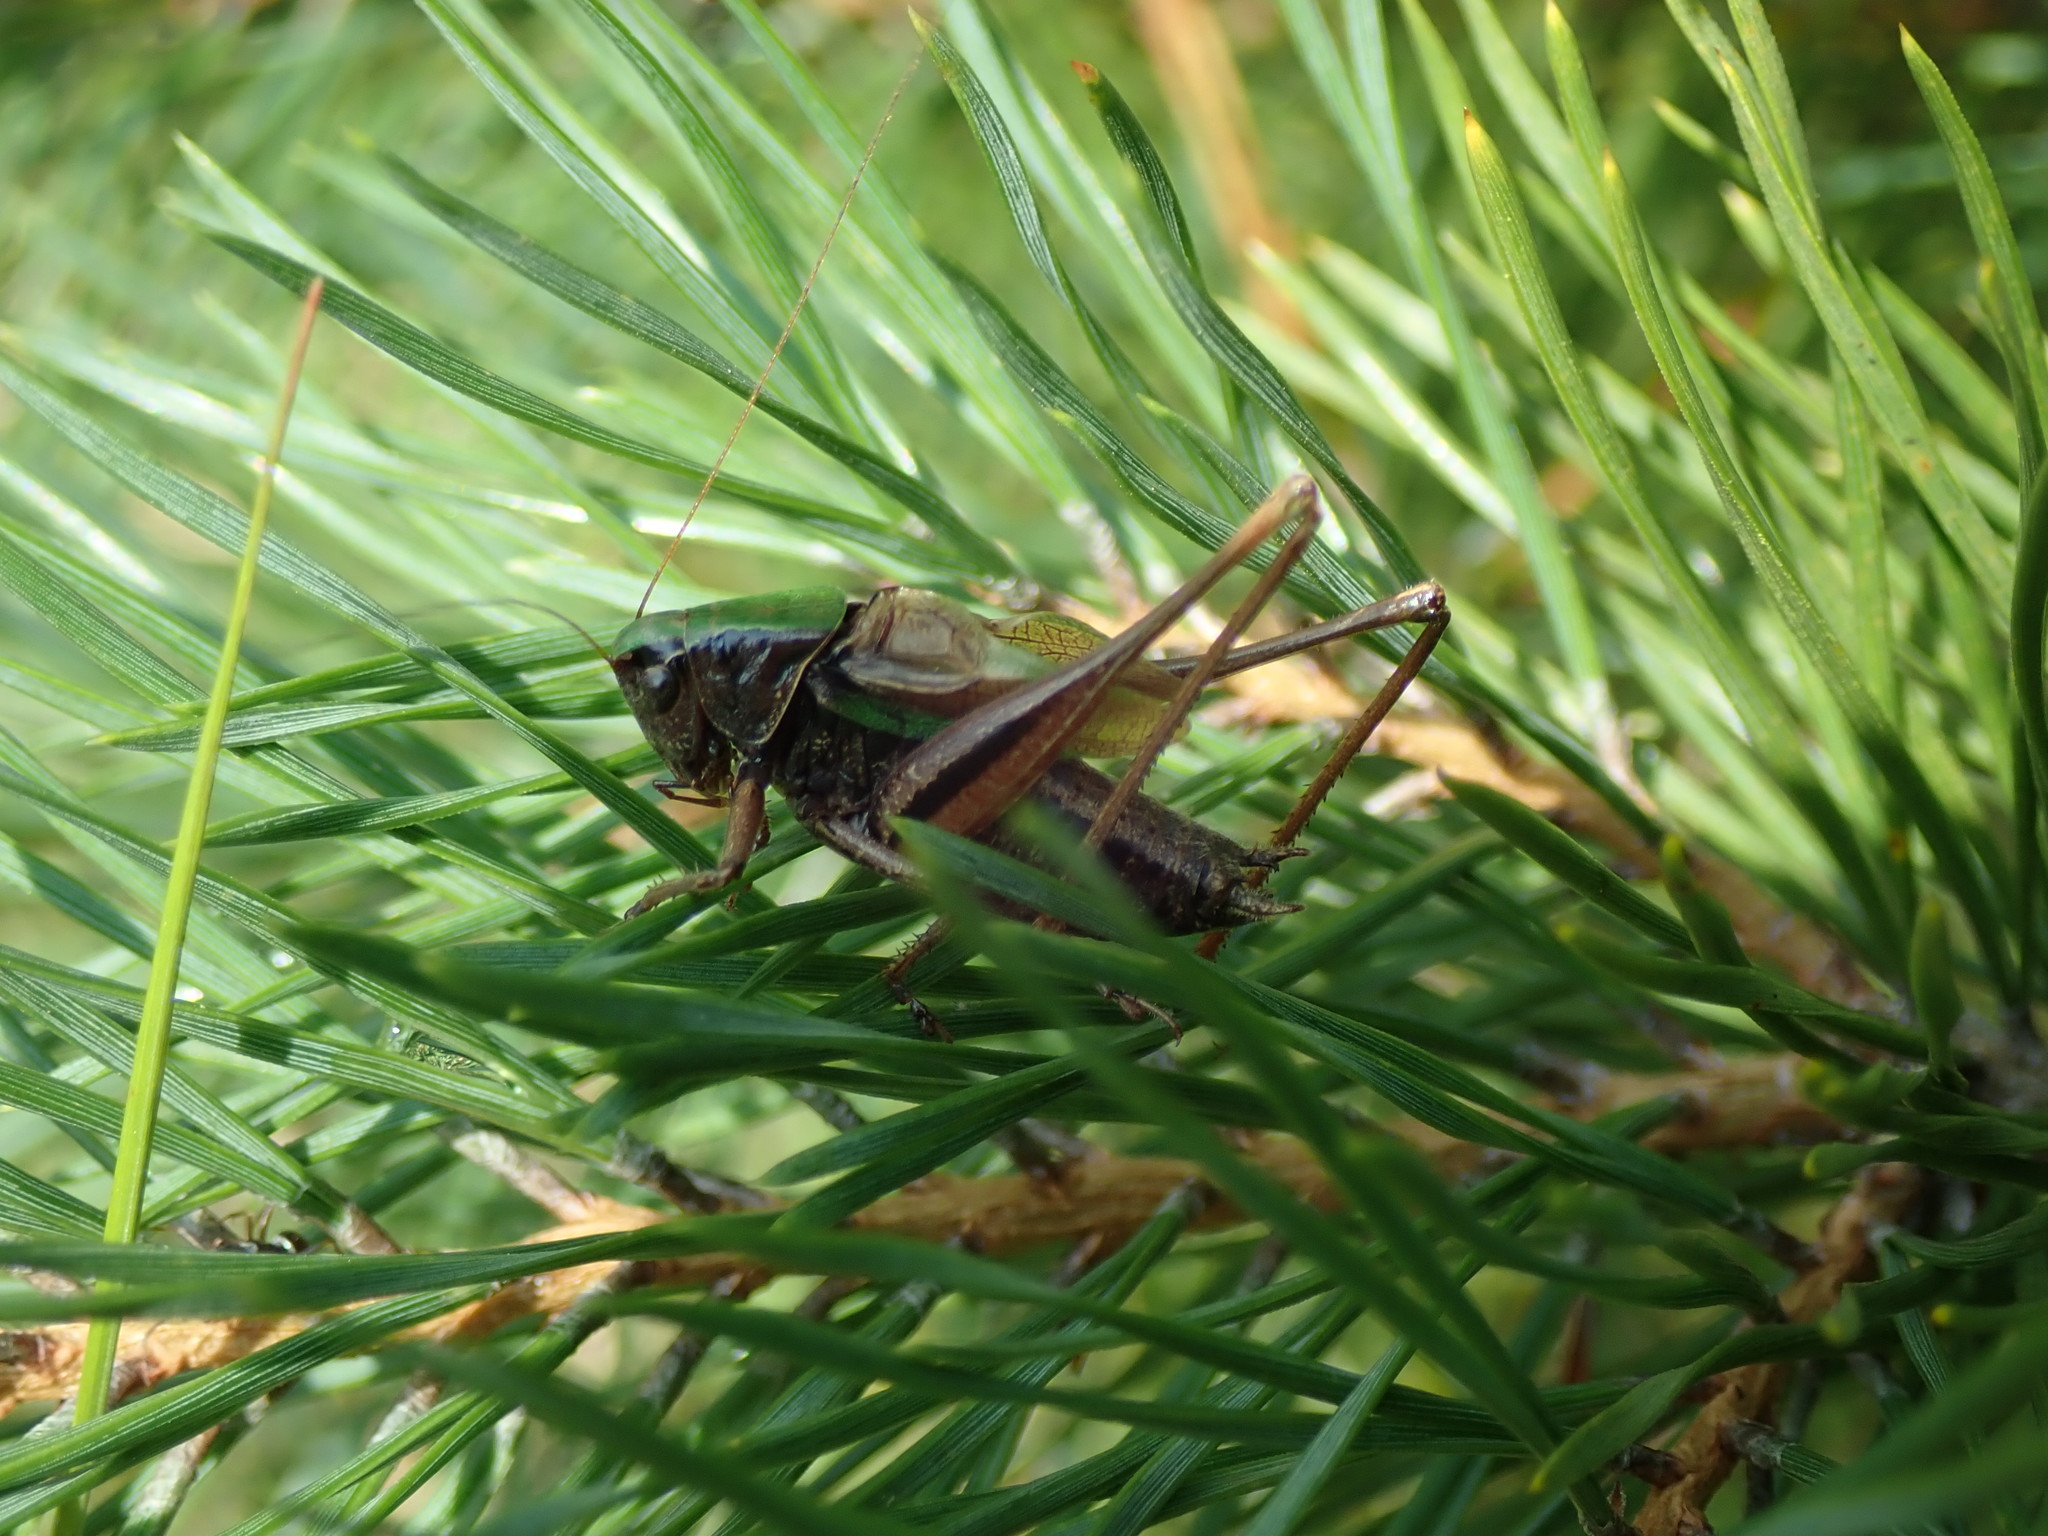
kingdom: Animalia
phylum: Arthropoda
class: Insecta
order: Orthoptera
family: Tettigoniidae
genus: Metrioptera
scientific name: Metrioptera brachyptera
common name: Bog bush-cricket
